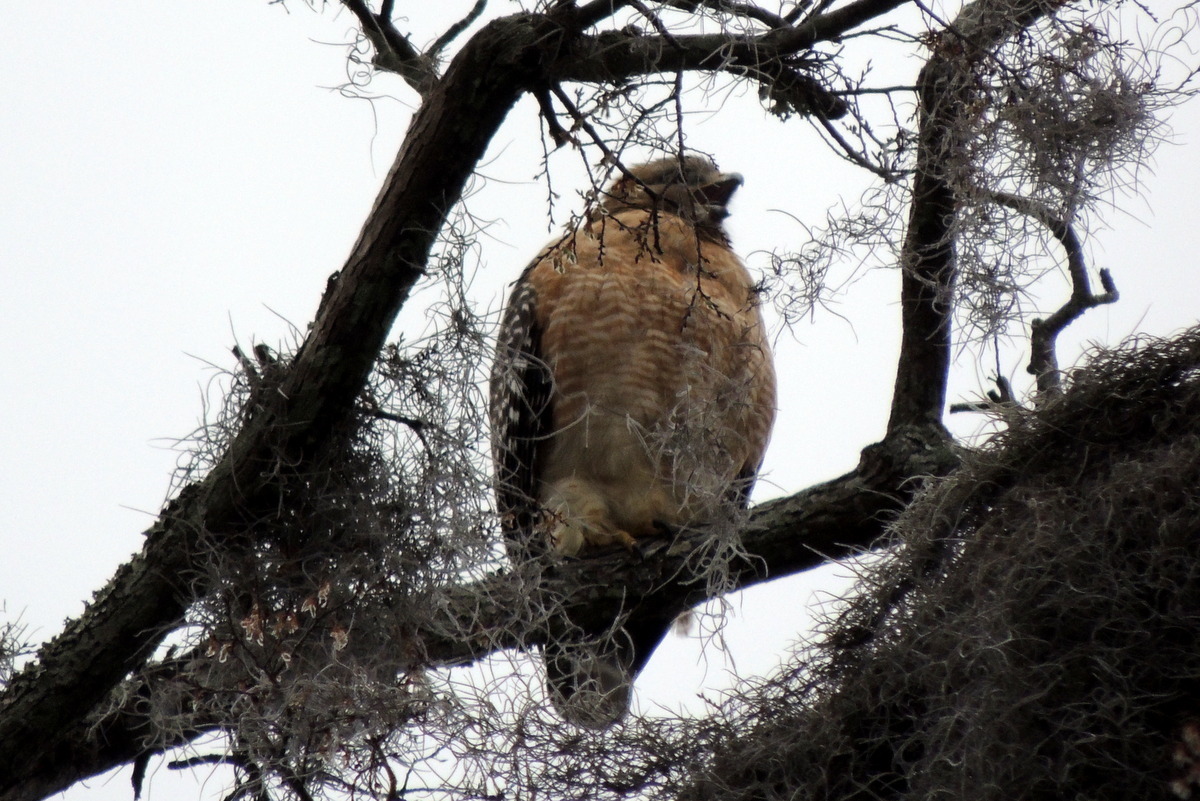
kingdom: Animalia
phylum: Chordata
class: Aves
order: Accipitriformes
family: Accipitridae
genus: Buteo
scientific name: Buteo lineatus
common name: Red-shouldered hawk
